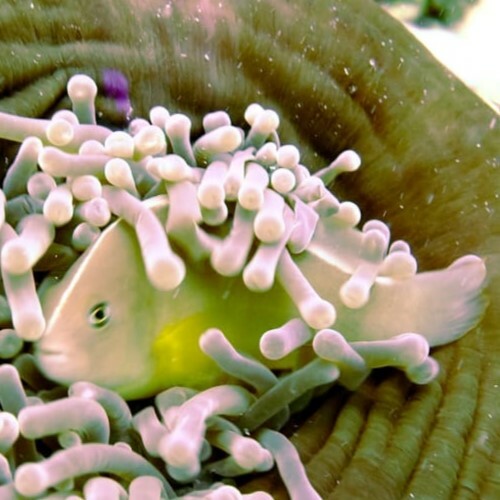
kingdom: Animalia
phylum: Chordata
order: Perciformes
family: Pomacentridae
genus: Amphiprion
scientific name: Amphiprion akallopisos
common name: Skunk clownfish
